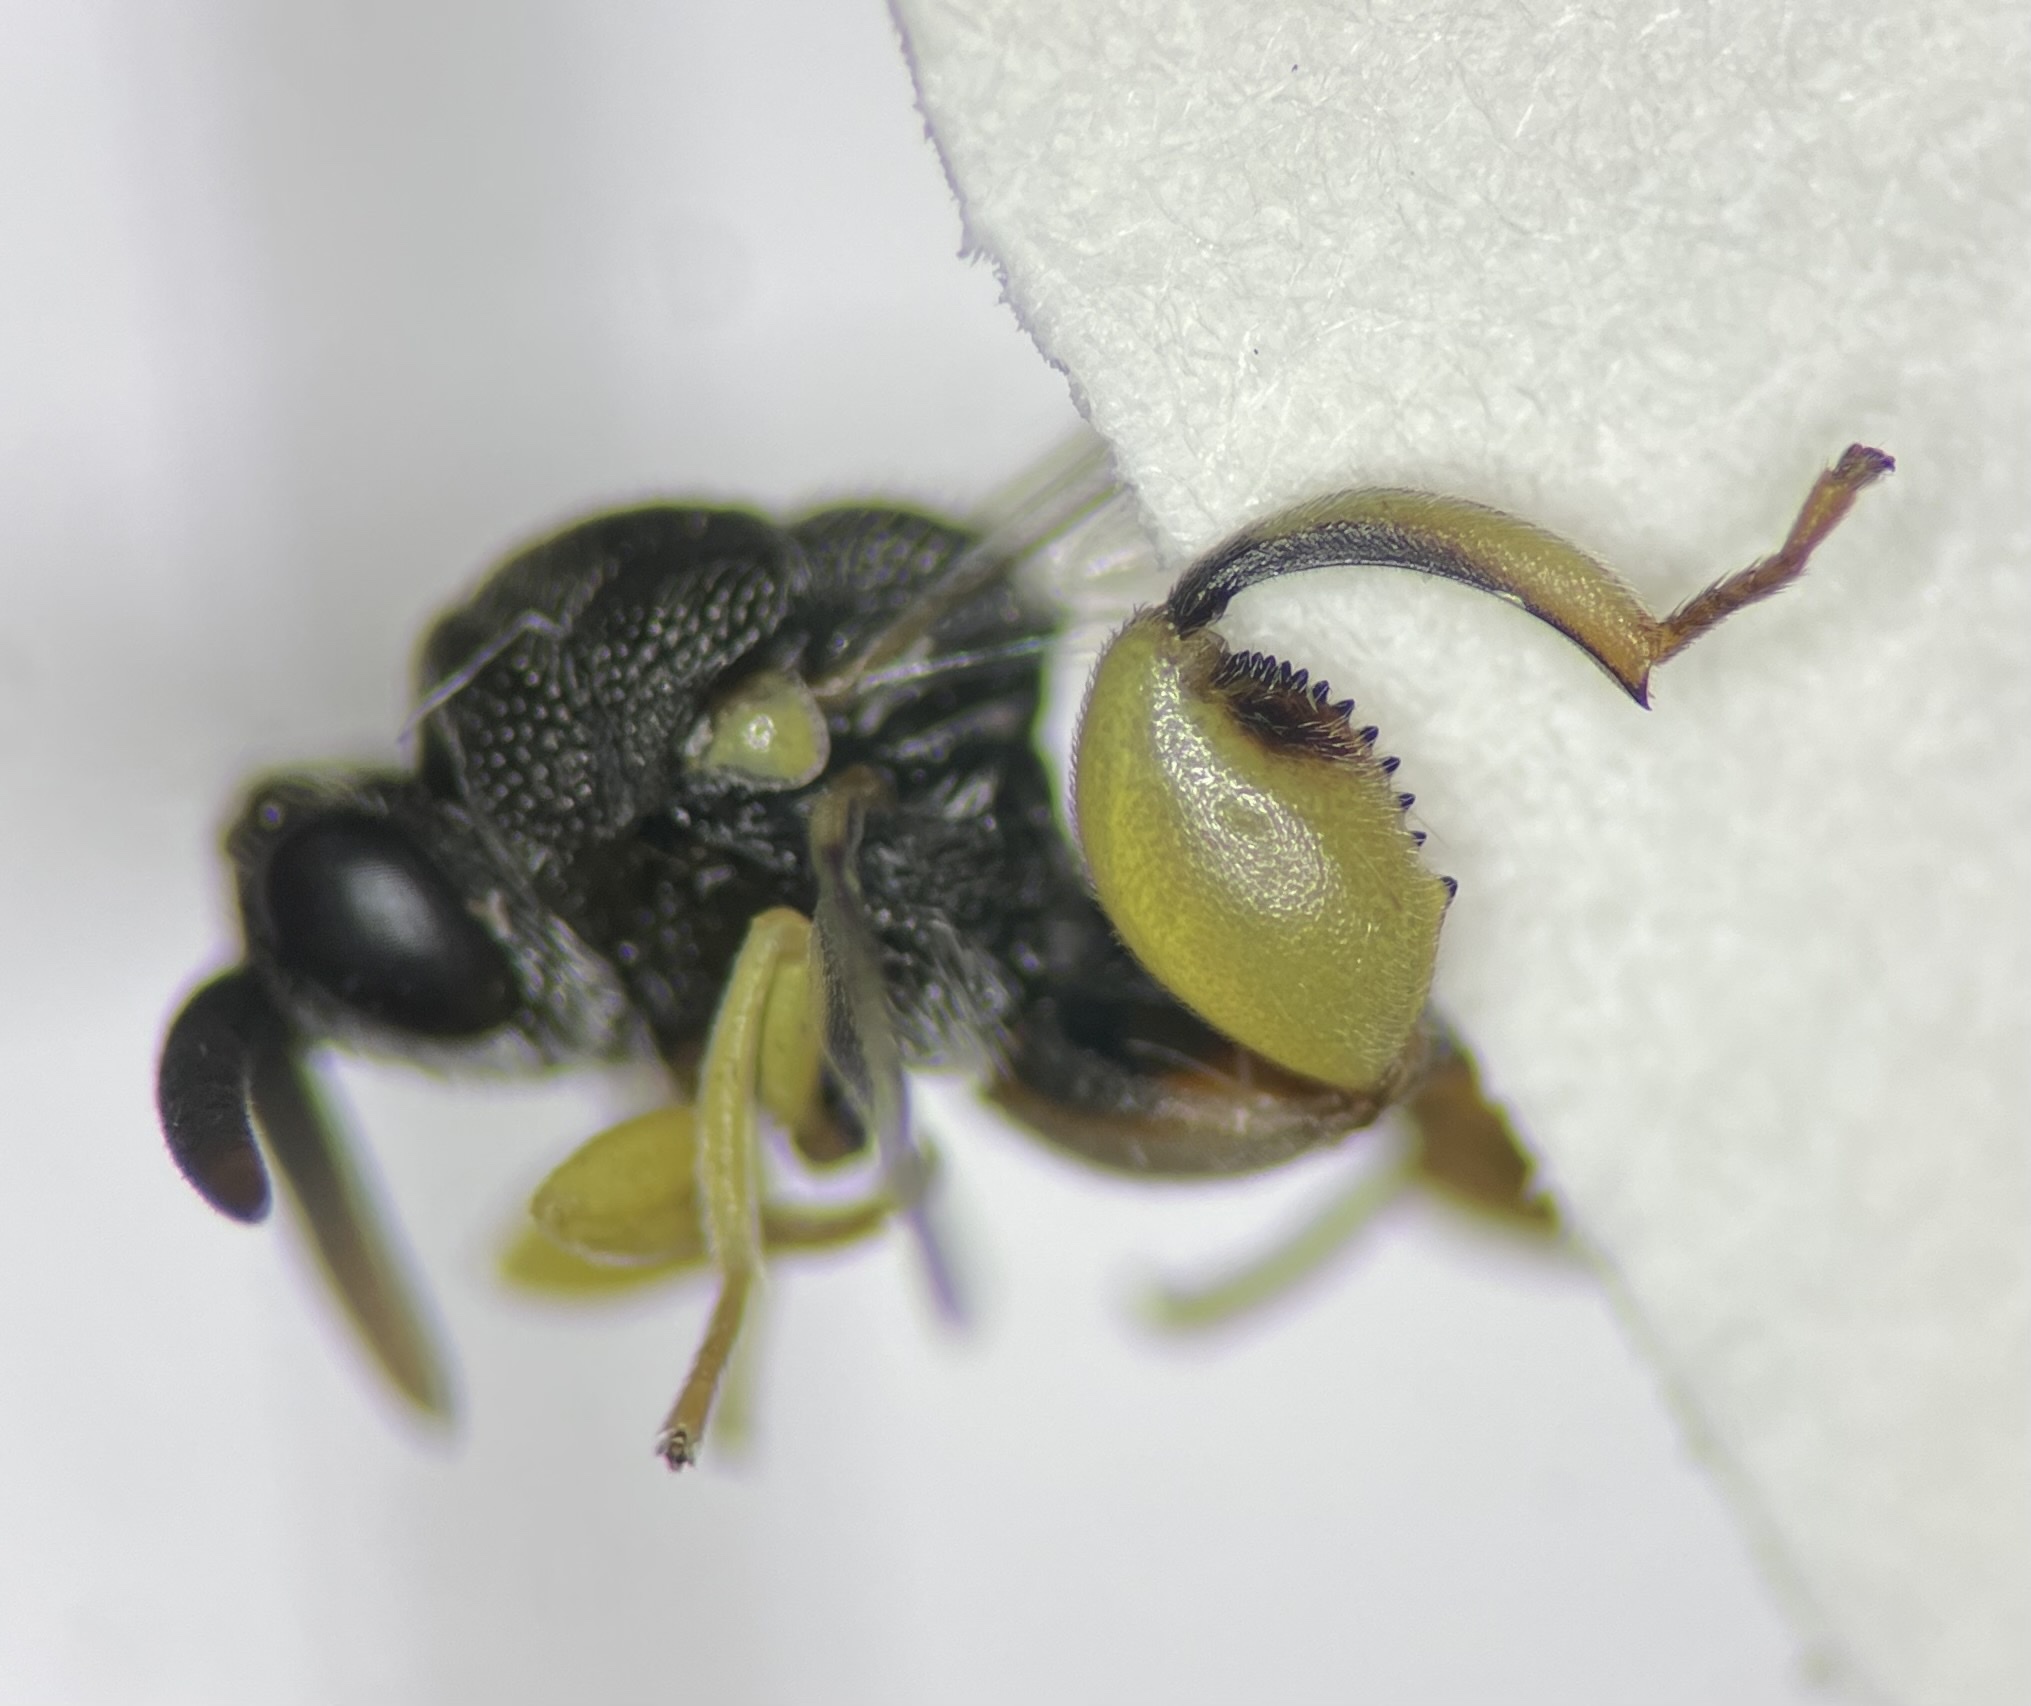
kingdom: Animalia
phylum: Arthropoda
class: Insecta
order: Hymenoptera
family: Chalcididae
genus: Brachymeria
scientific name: Brachymeria tegularis
